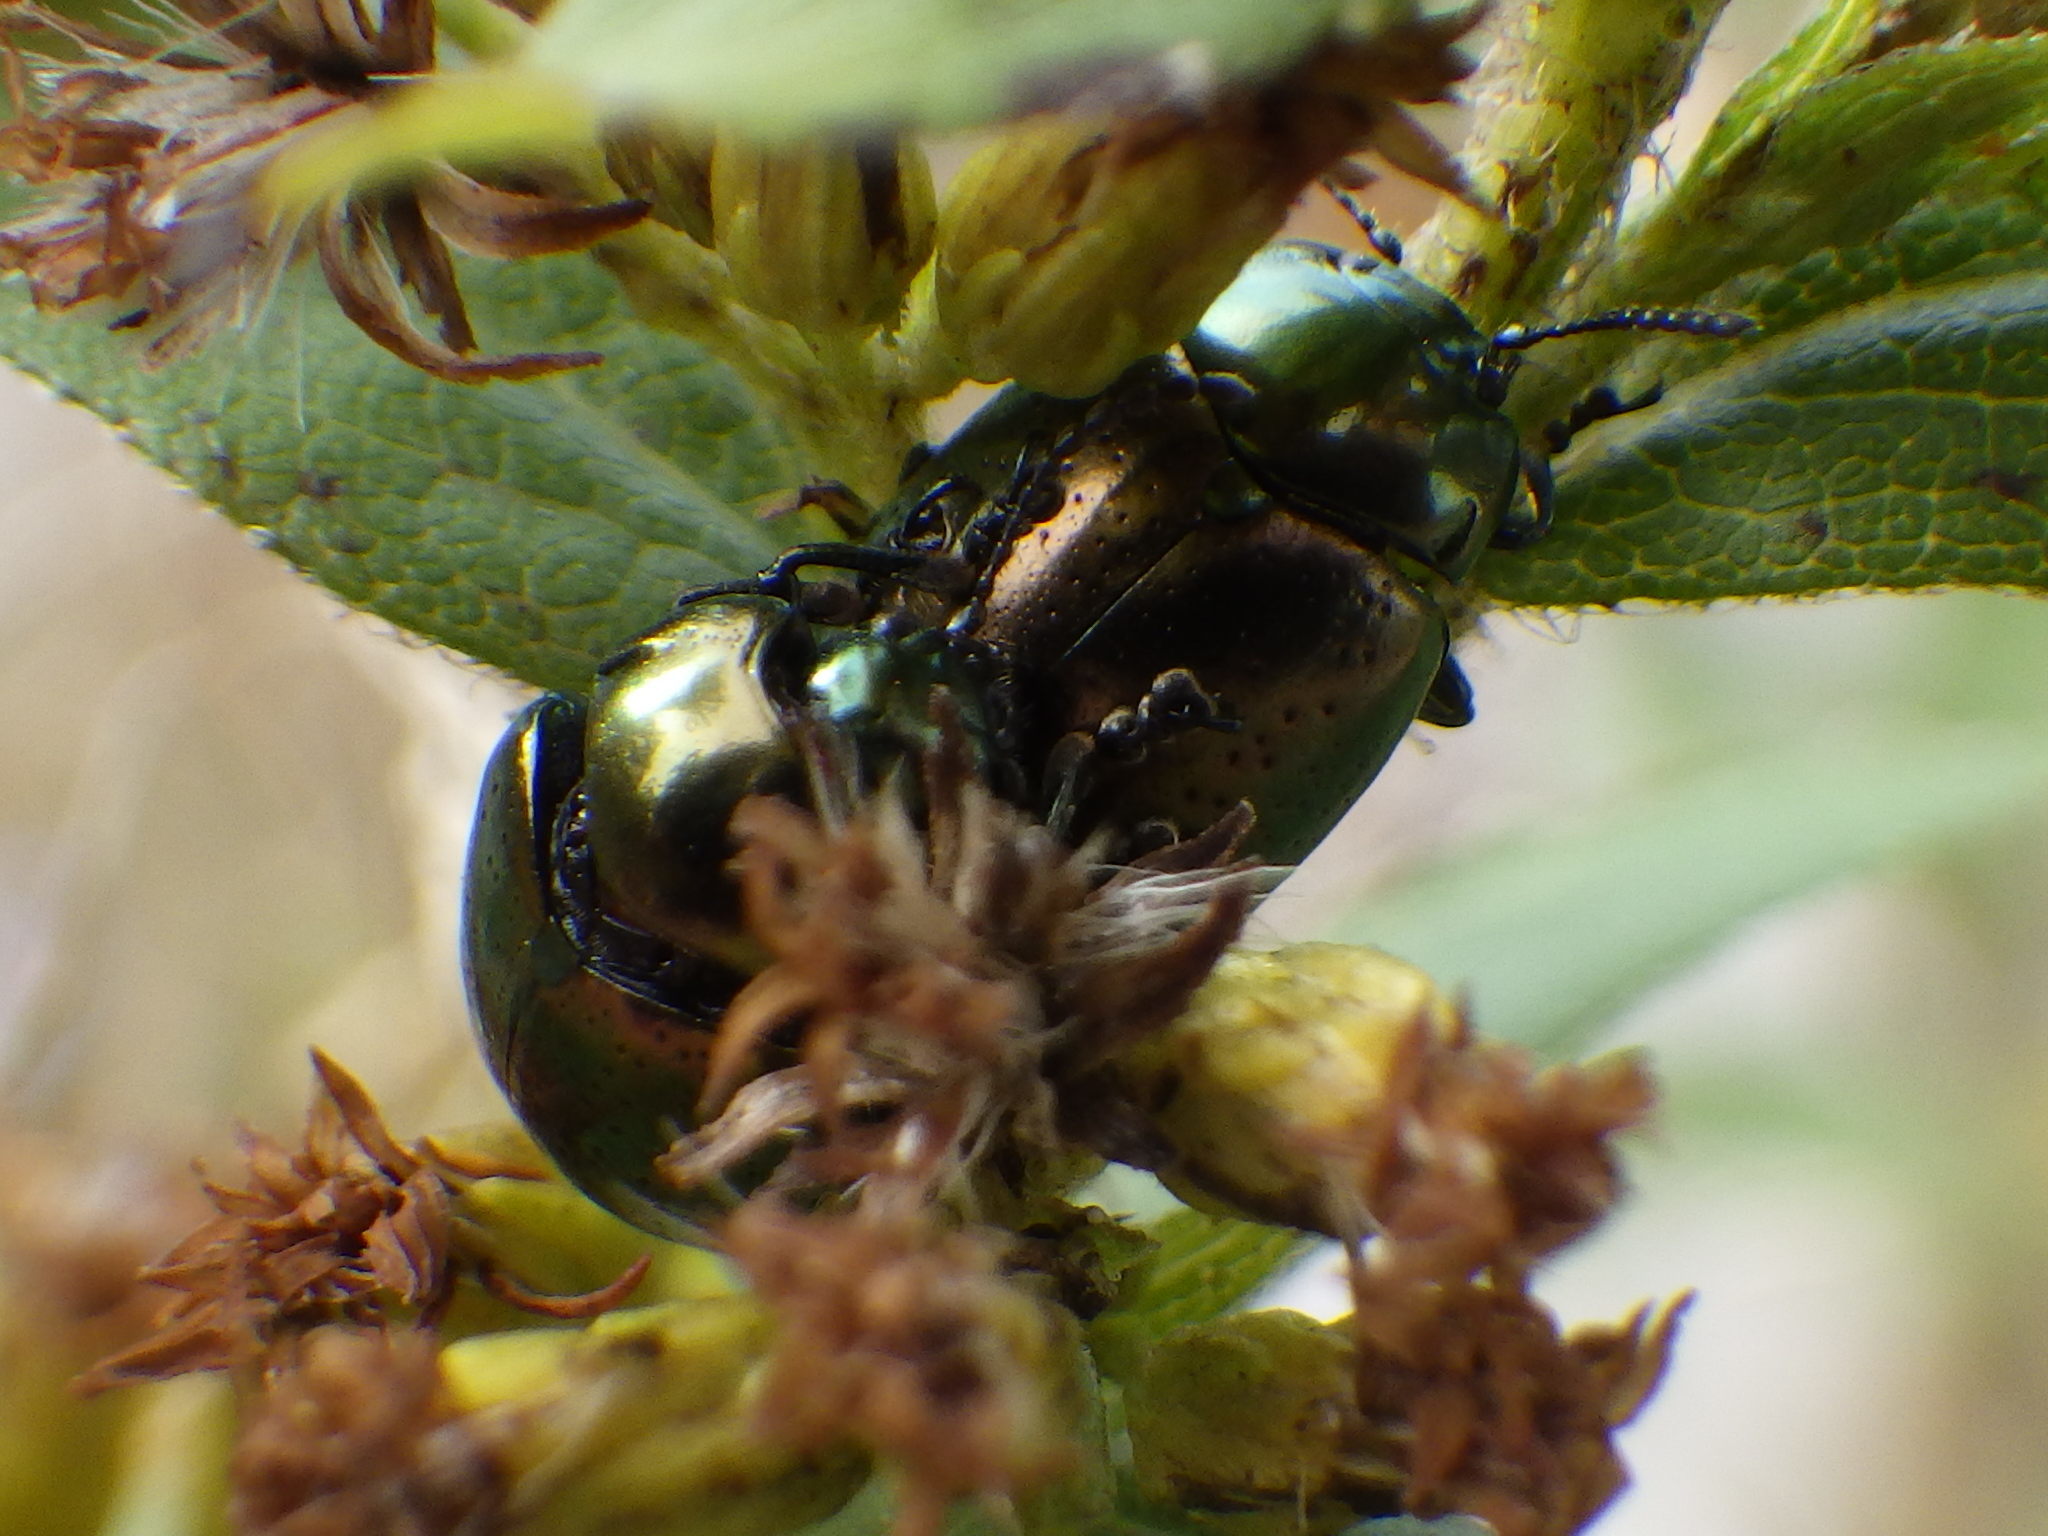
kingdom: Animalia
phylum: Arthropoda
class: Insecta
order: Coleoptera
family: Chrysomelidae
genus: Chrysolina
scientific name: Chrysolina hyperici
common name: St. johnswort beetle
